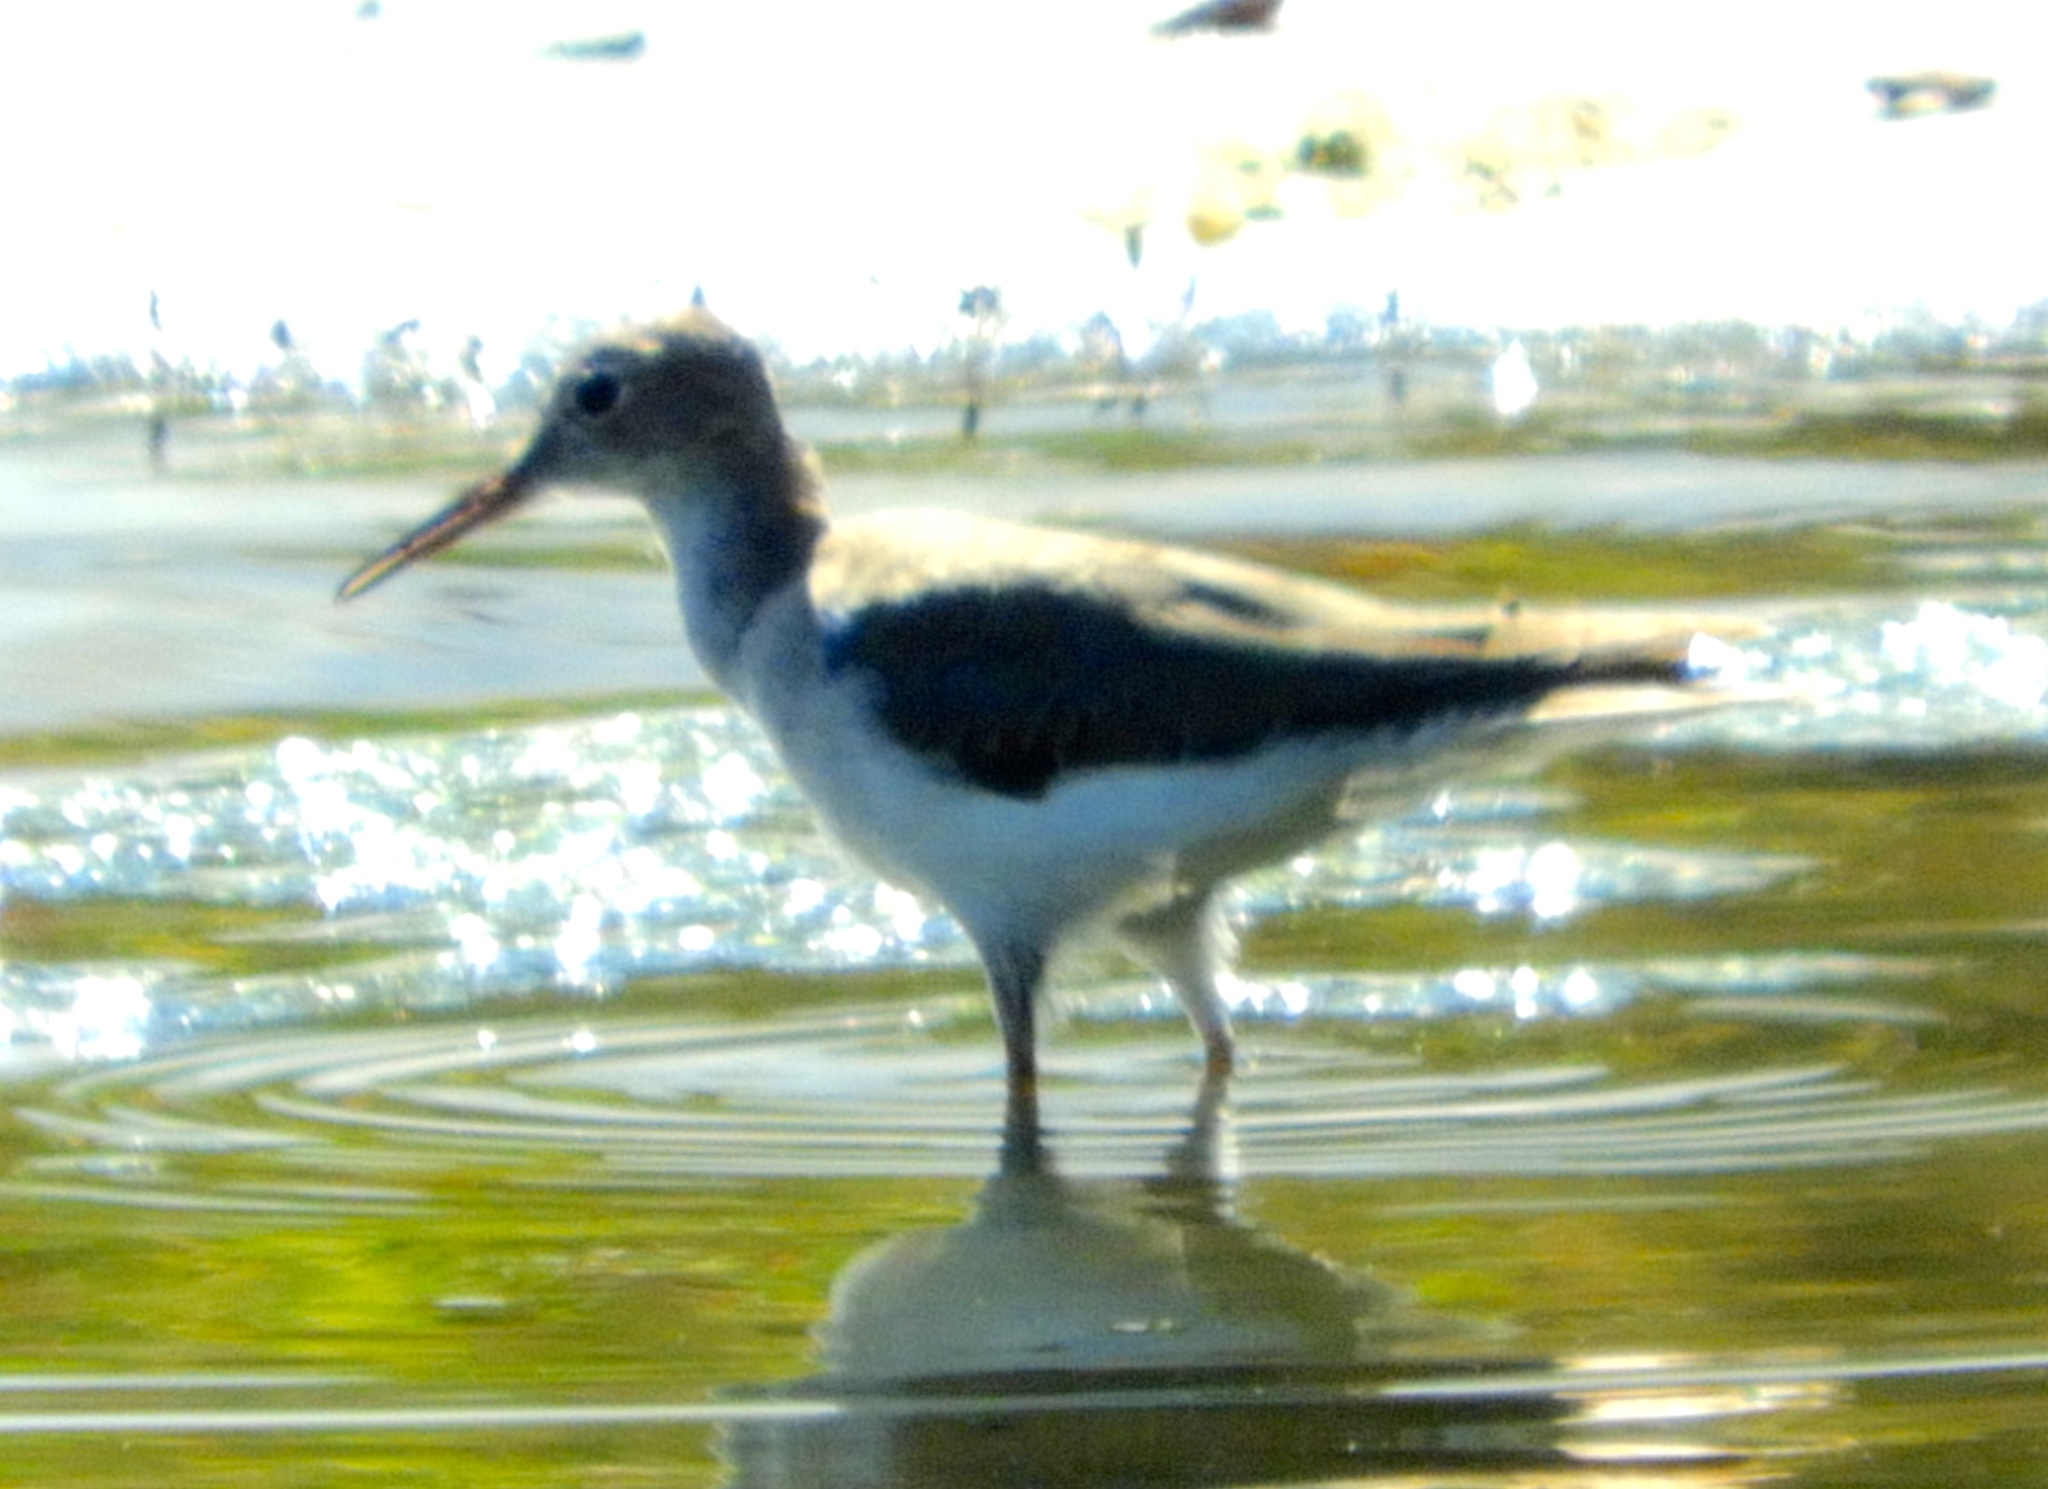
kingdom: Animalia
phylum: Chordata
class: Aves
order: Charadriiformes
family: Scolopacidae
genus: Tringa
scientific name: Tringa melanoleuca
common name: Greater yellowlegs
